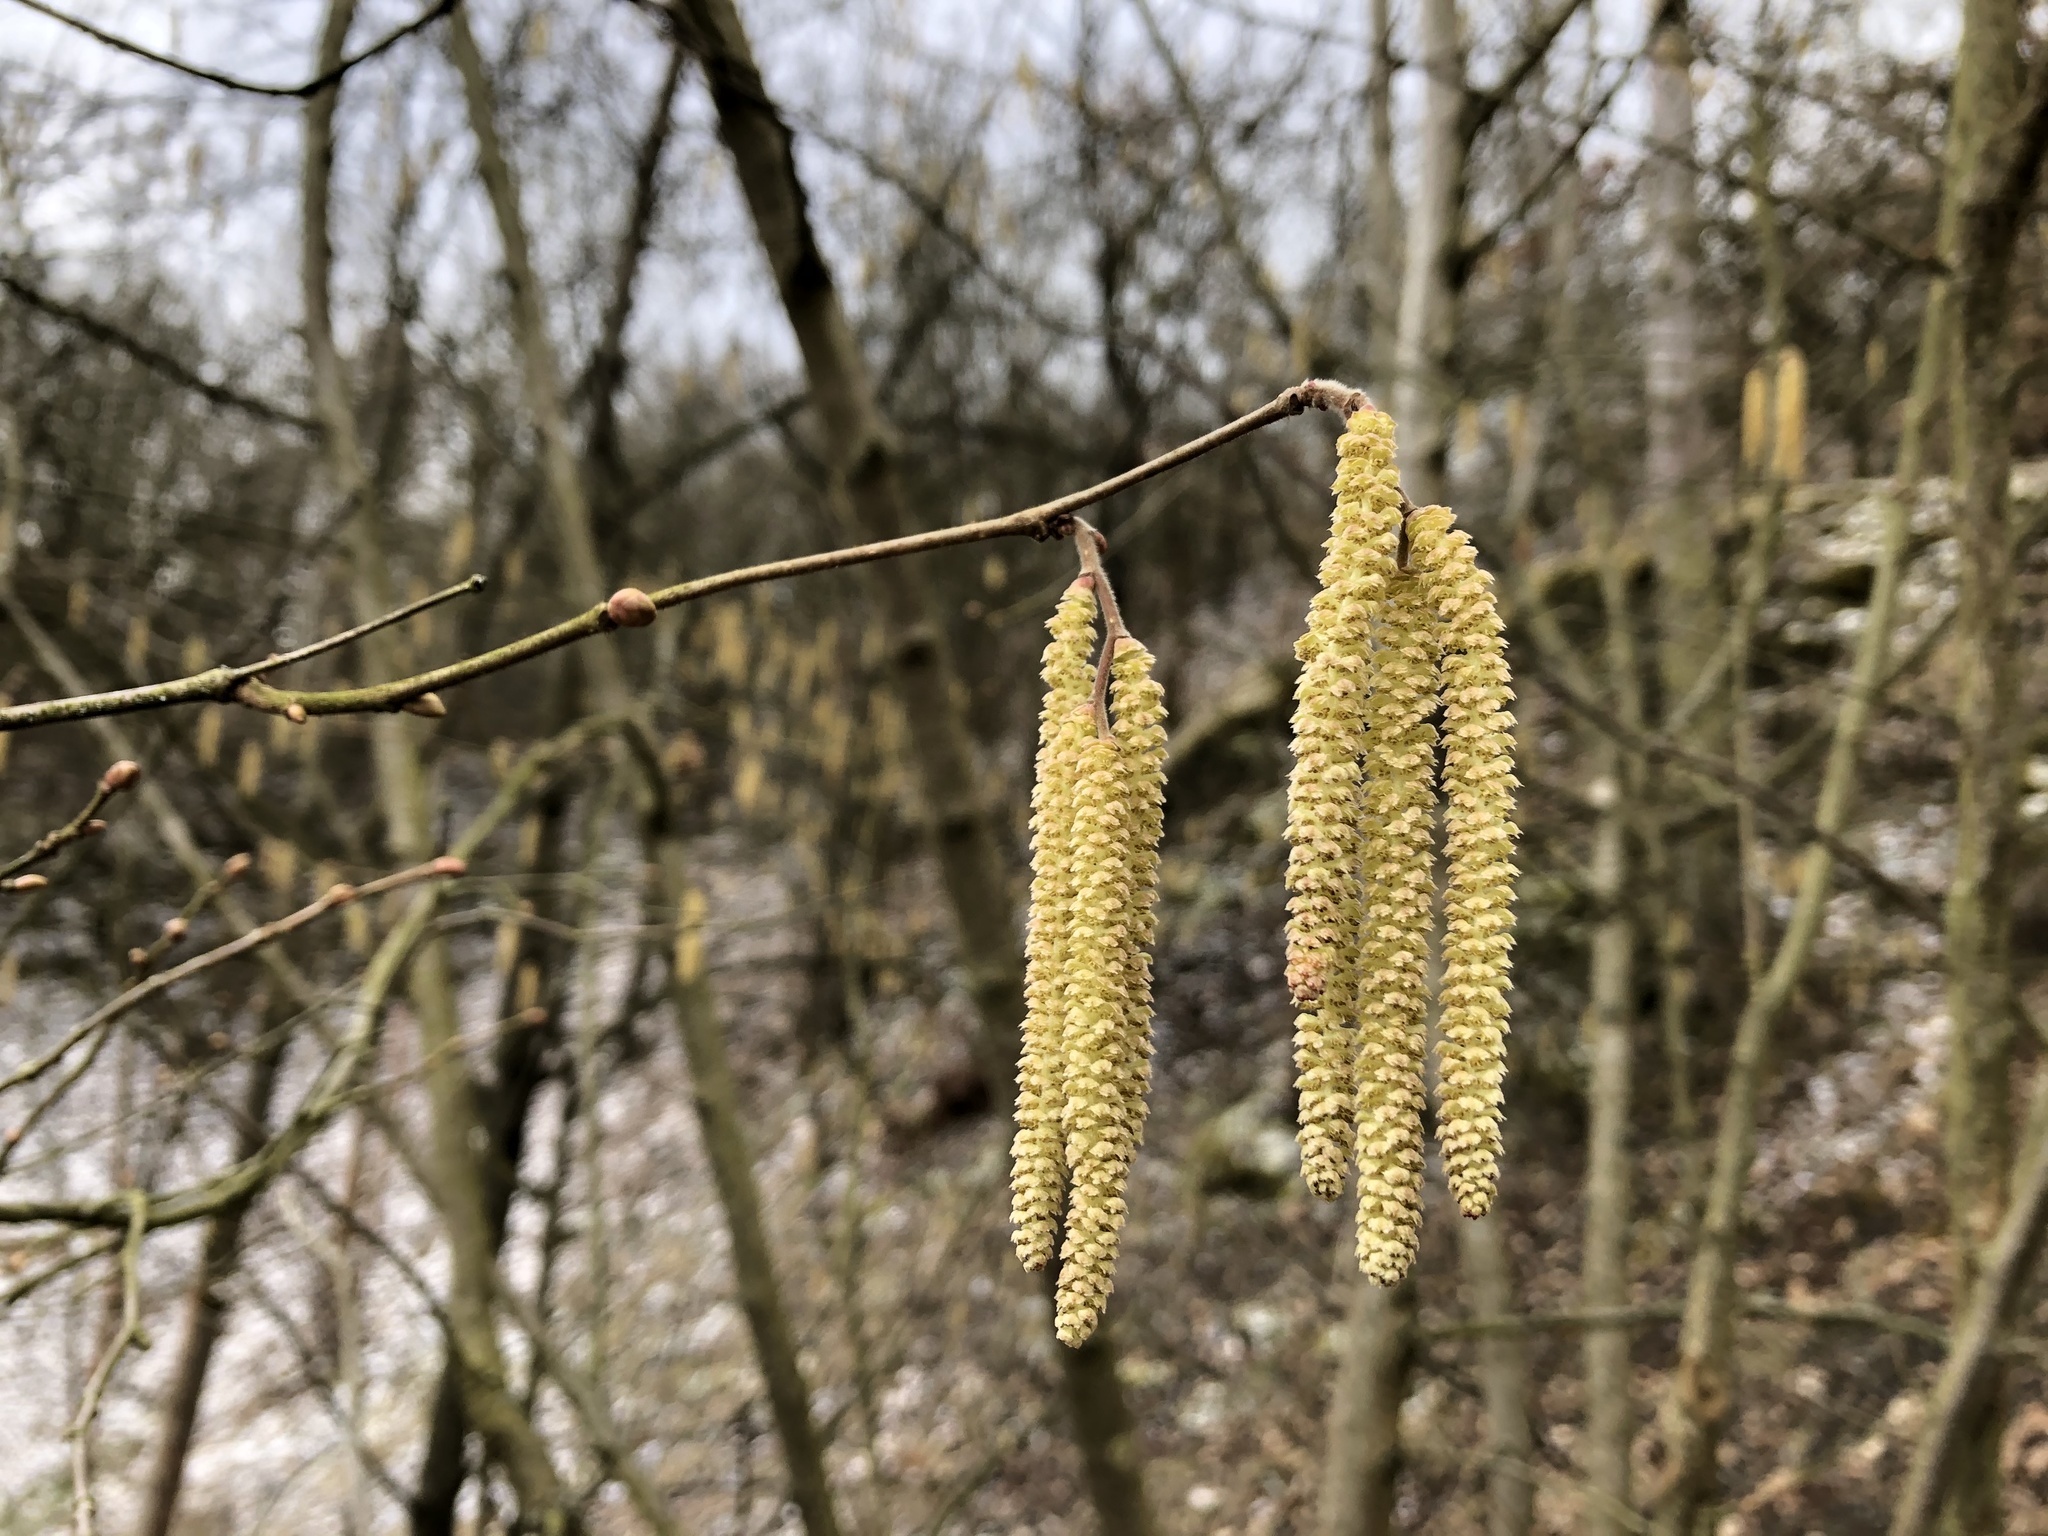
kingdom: Plantae
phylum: Tracheophyta
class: Magnoliopsida
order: Fagales
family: Betulaceae
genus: Corylus
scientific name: Corylus avellana
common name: European hazel
